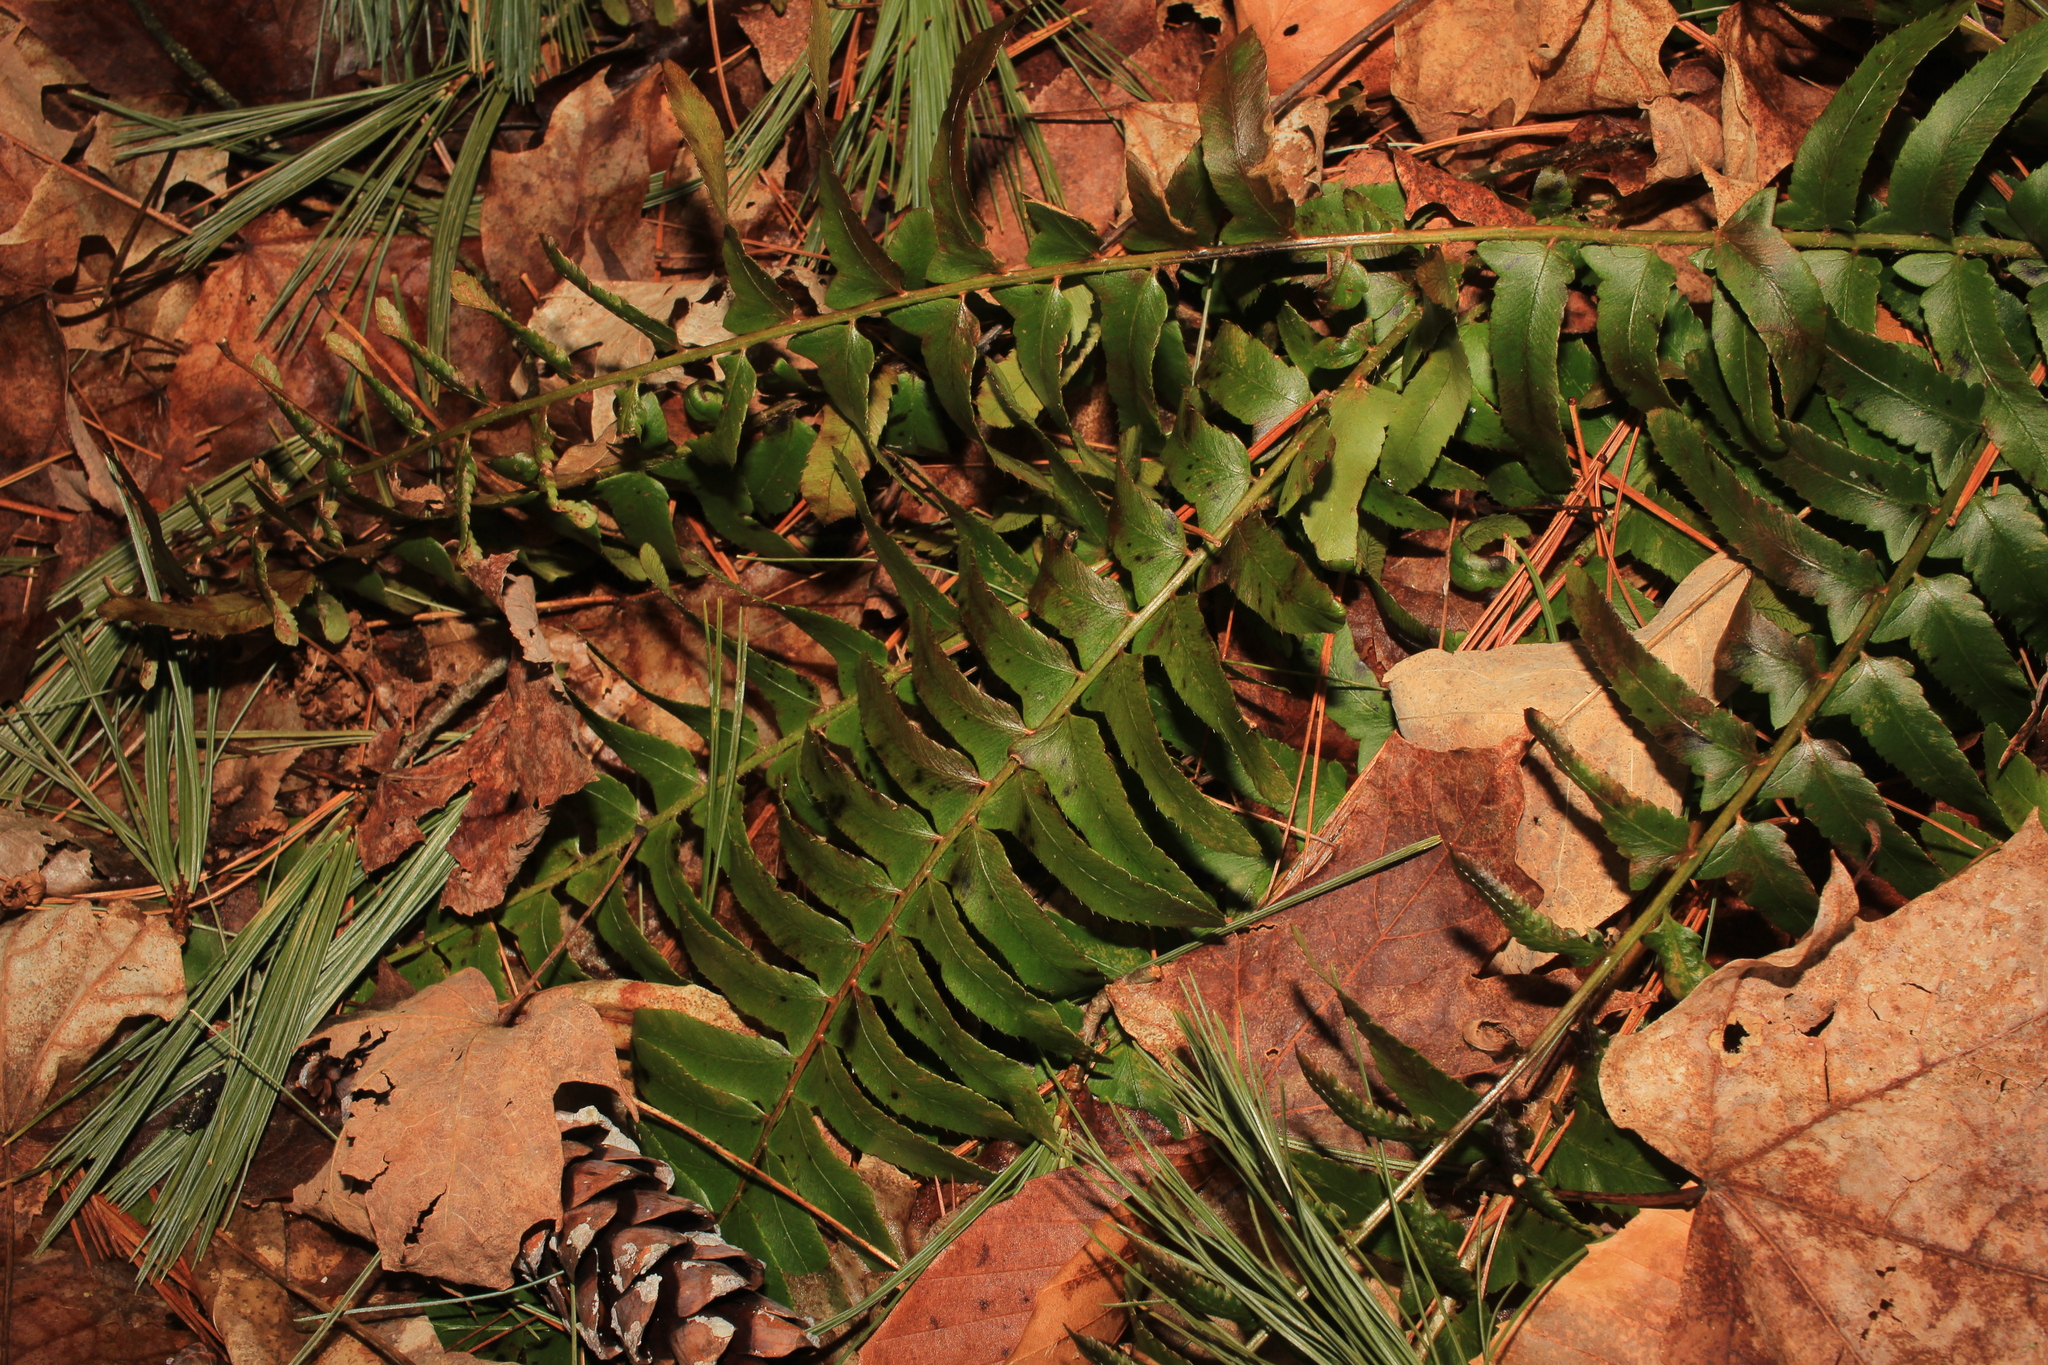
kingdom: Plantae
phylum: Tracheophyta
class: Polypodiopsida
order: Polypodiales
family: Dryopteridaceae
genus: Polystichum
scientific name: Polystichum acrostichoides
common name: Christmas fern
